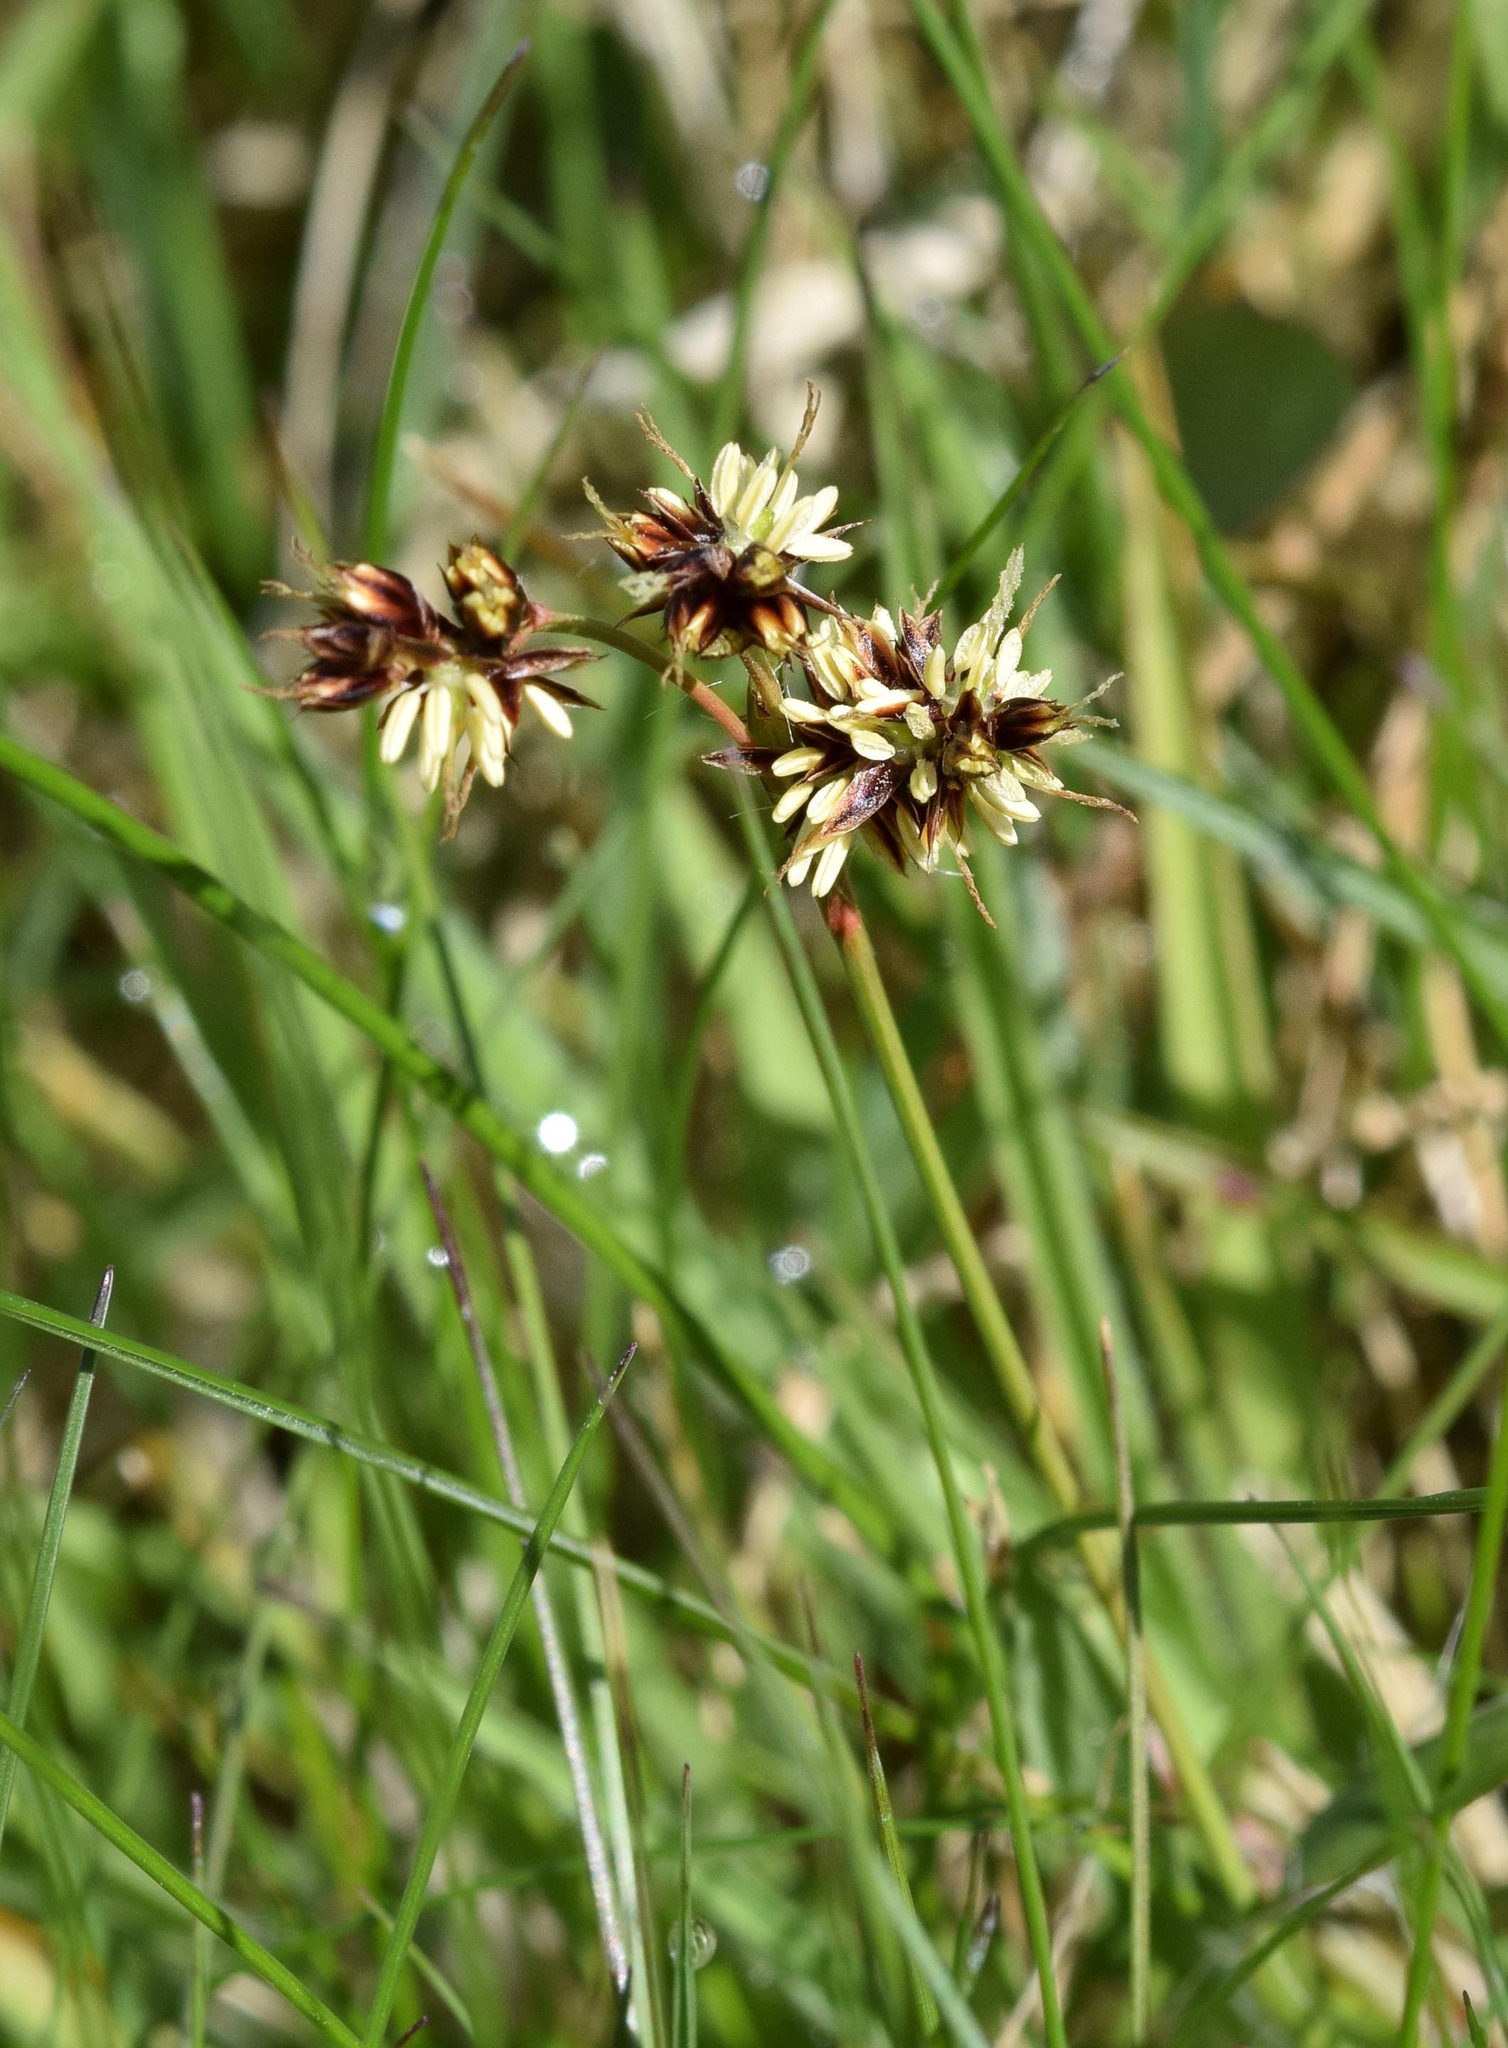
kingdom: Plantae
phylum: Tracheophyta
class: Liliopsida
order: Poales
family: Juncaceae
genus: Luzula
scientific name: Luzula campestris
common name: Field wood-rush
